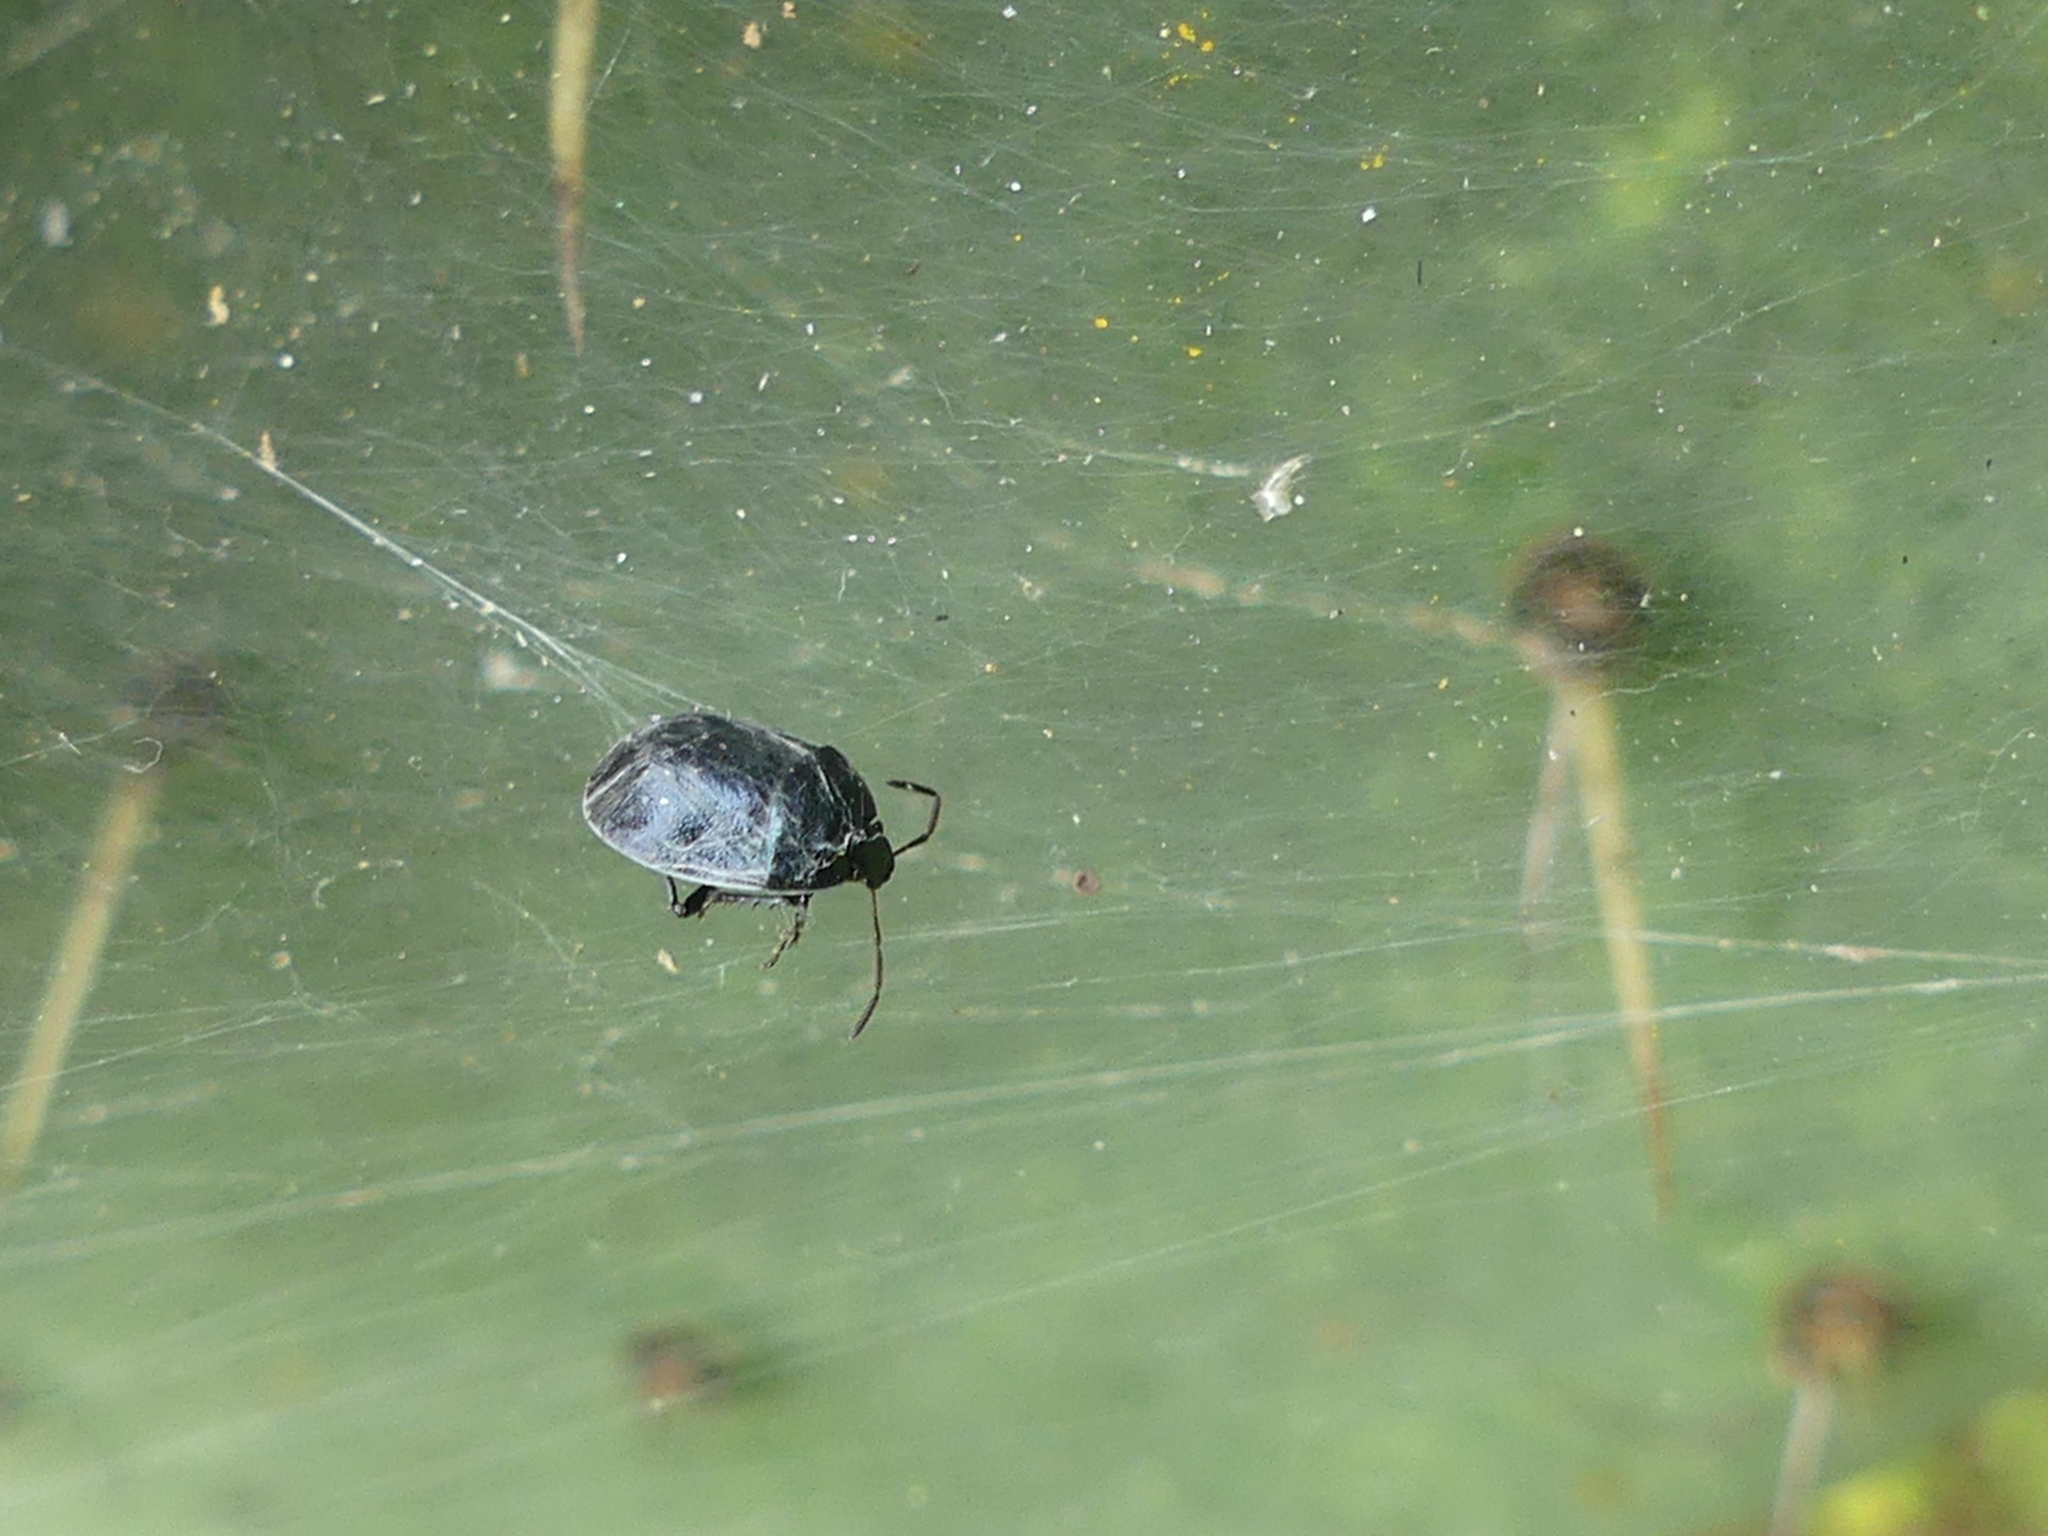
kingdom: Animalia
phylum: Arthropoda
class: Insecta
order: Hemiptera
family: Cydnidae
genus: Sehirus
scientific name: Sehirus cinctus
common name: White-margined burrower bug
